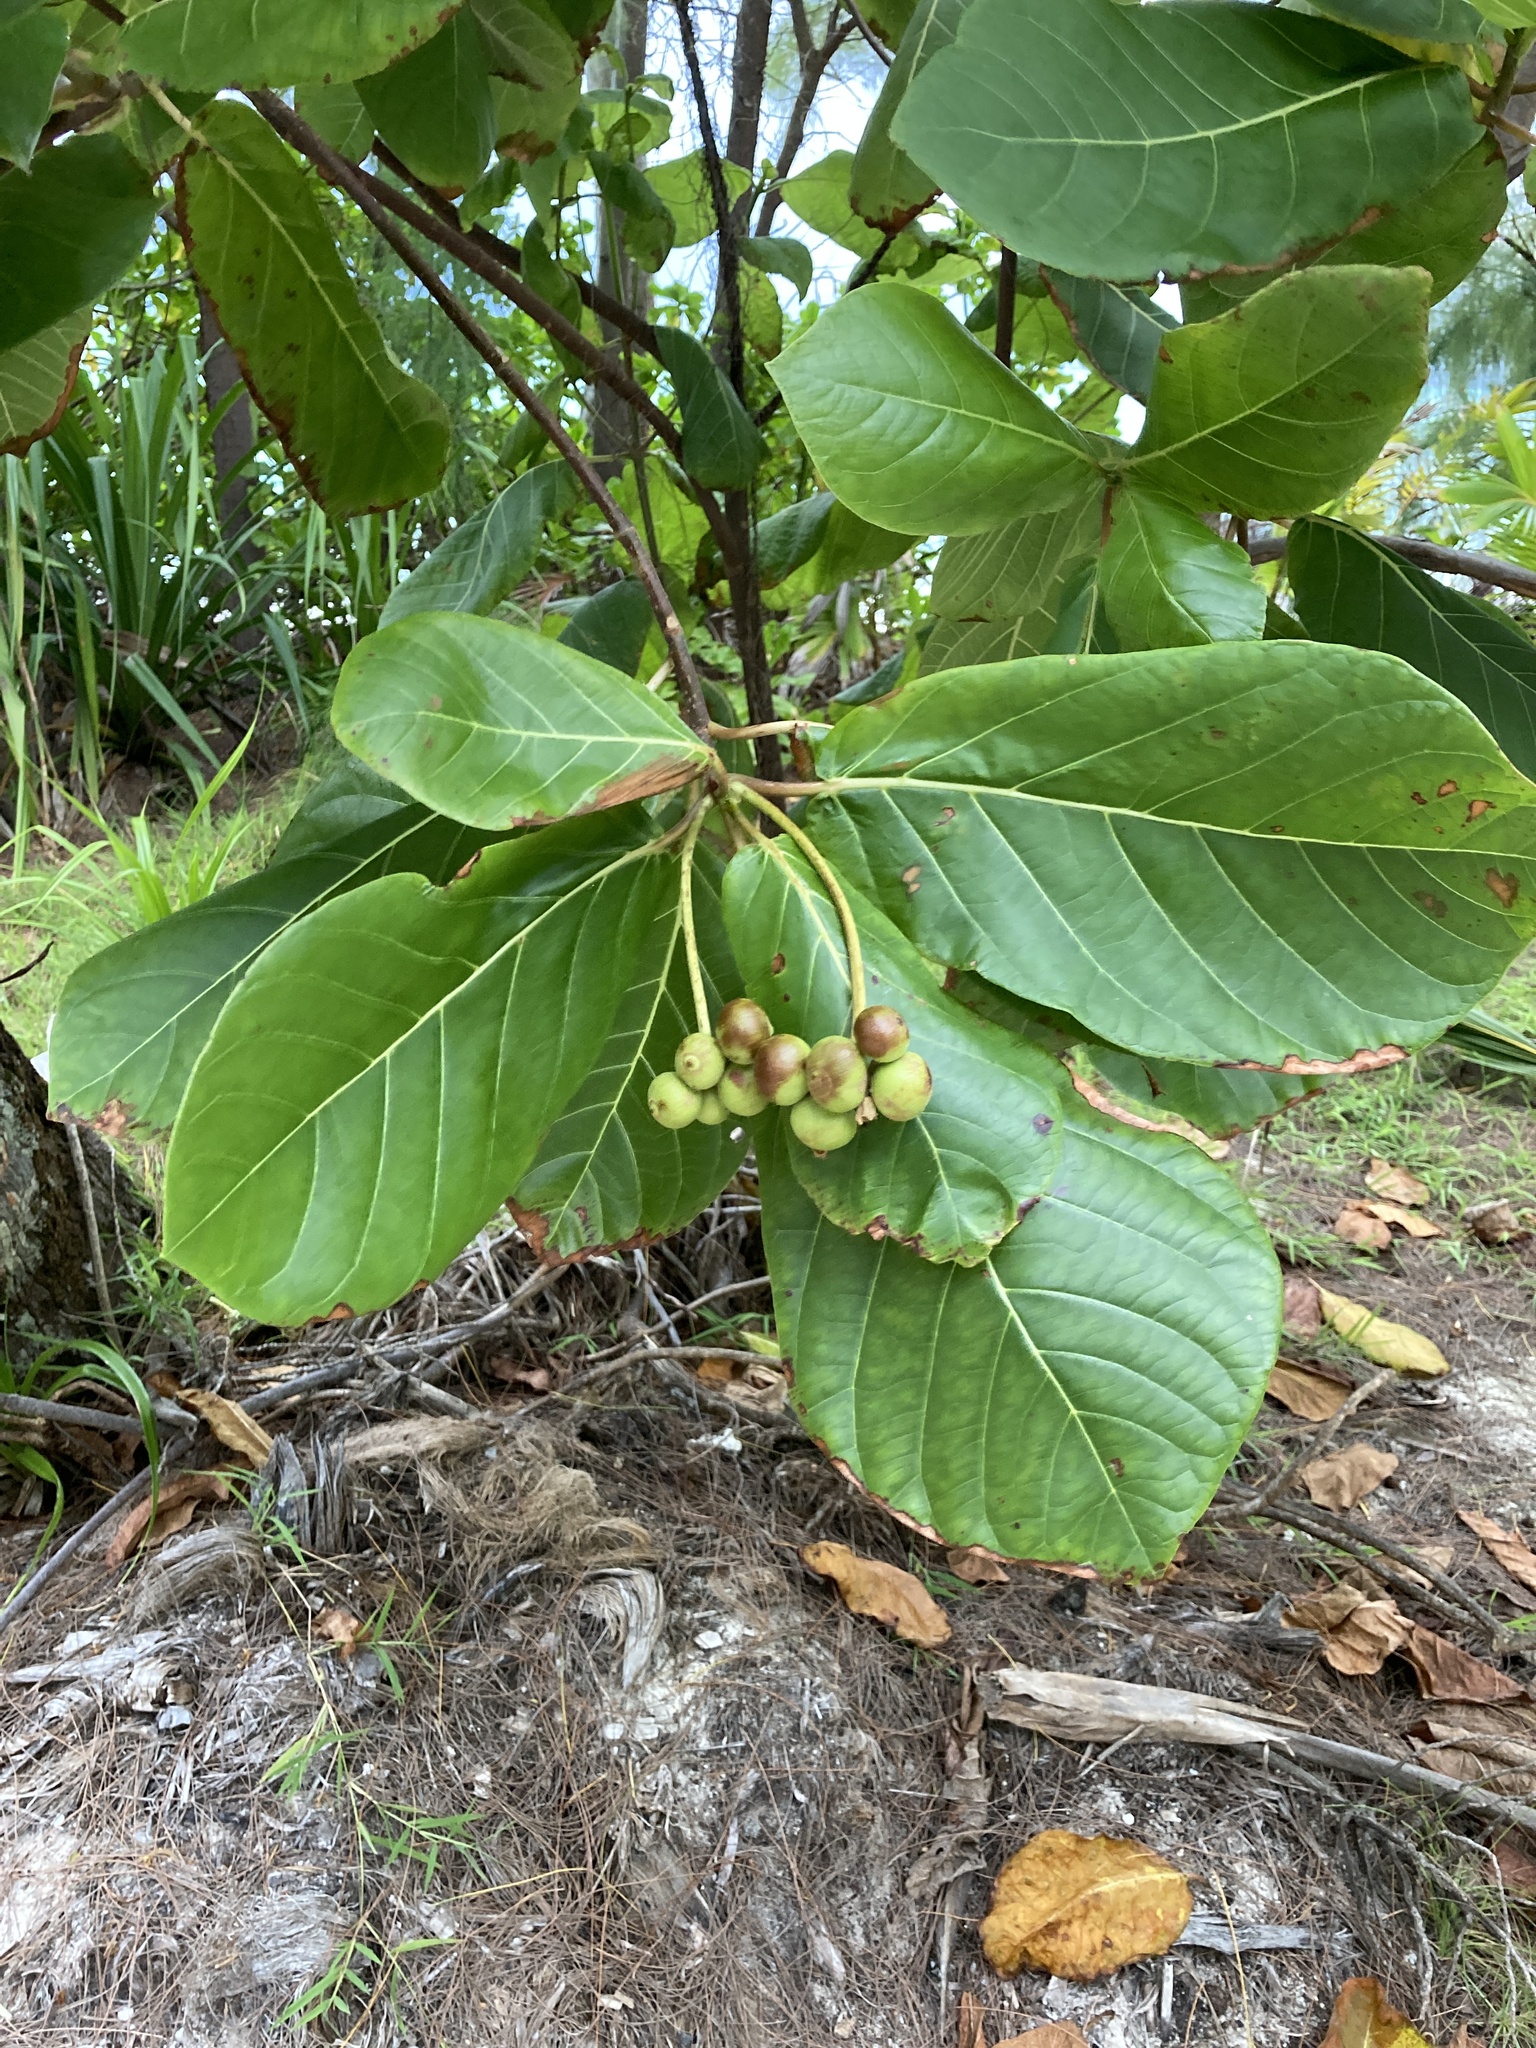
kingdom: Plantae
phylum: Tracheophyta
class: Magnoliopsida
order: Gentianales
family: Rubiaceae
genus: Guettarda
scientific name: Guettarda speciosa
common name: Sea randa
